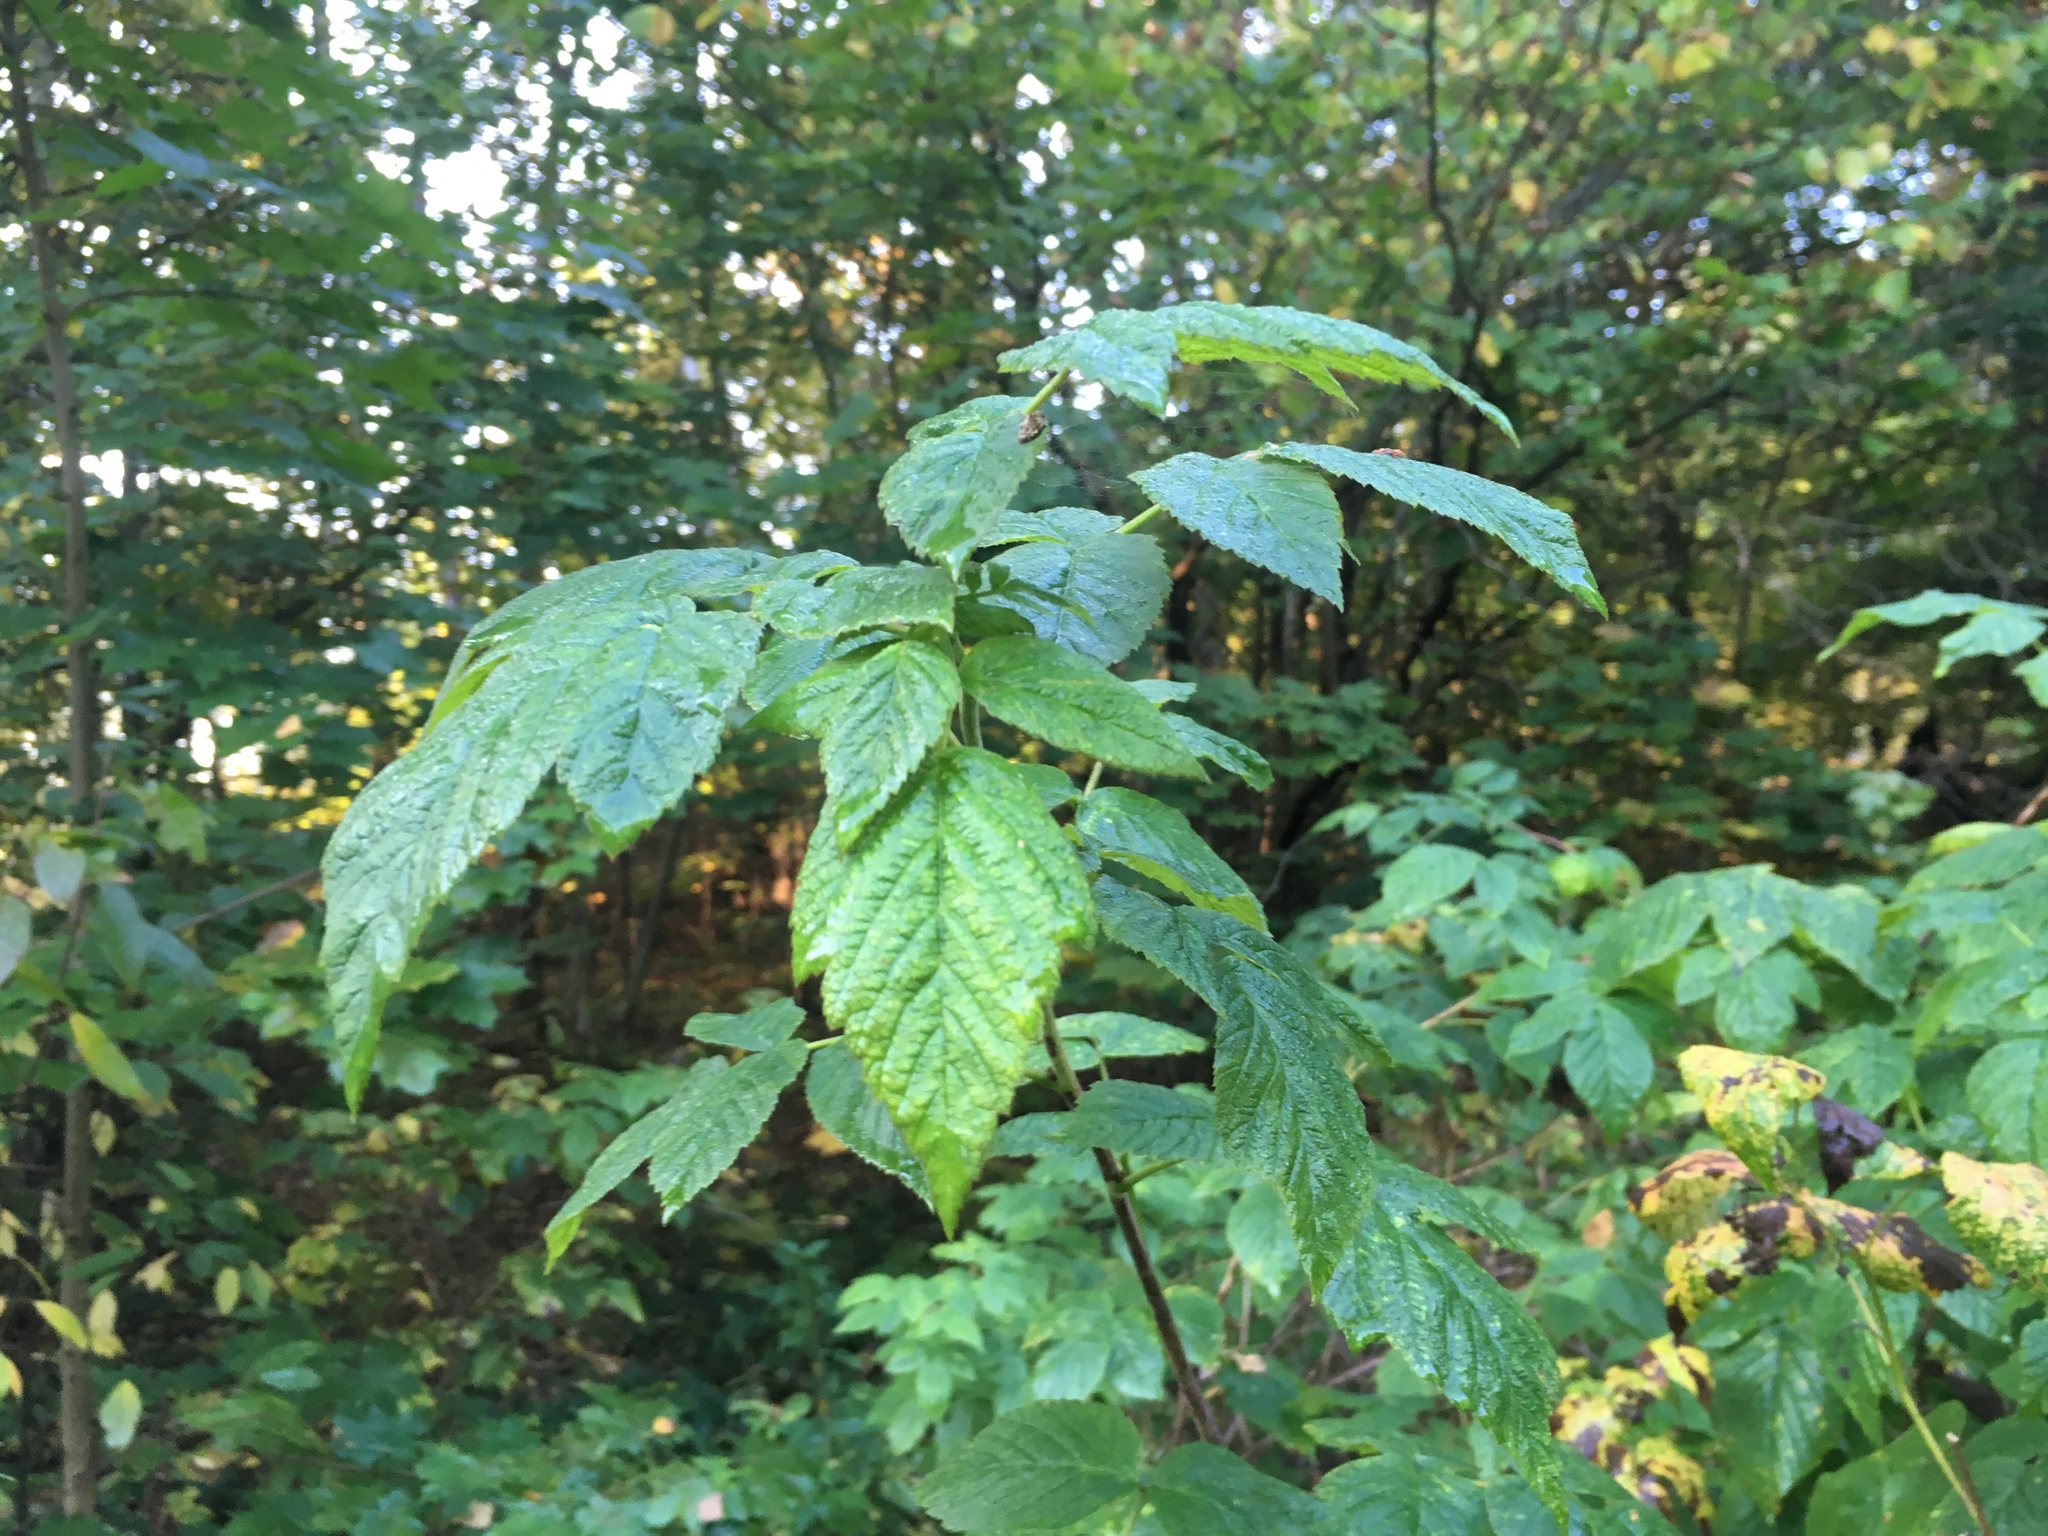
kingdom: Plantae
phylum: Tracheophyta
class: Magnoliopsida
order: Rosales
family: Rosaceae
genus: Rubus
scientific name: Rubus idaeus
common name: Raspberry
